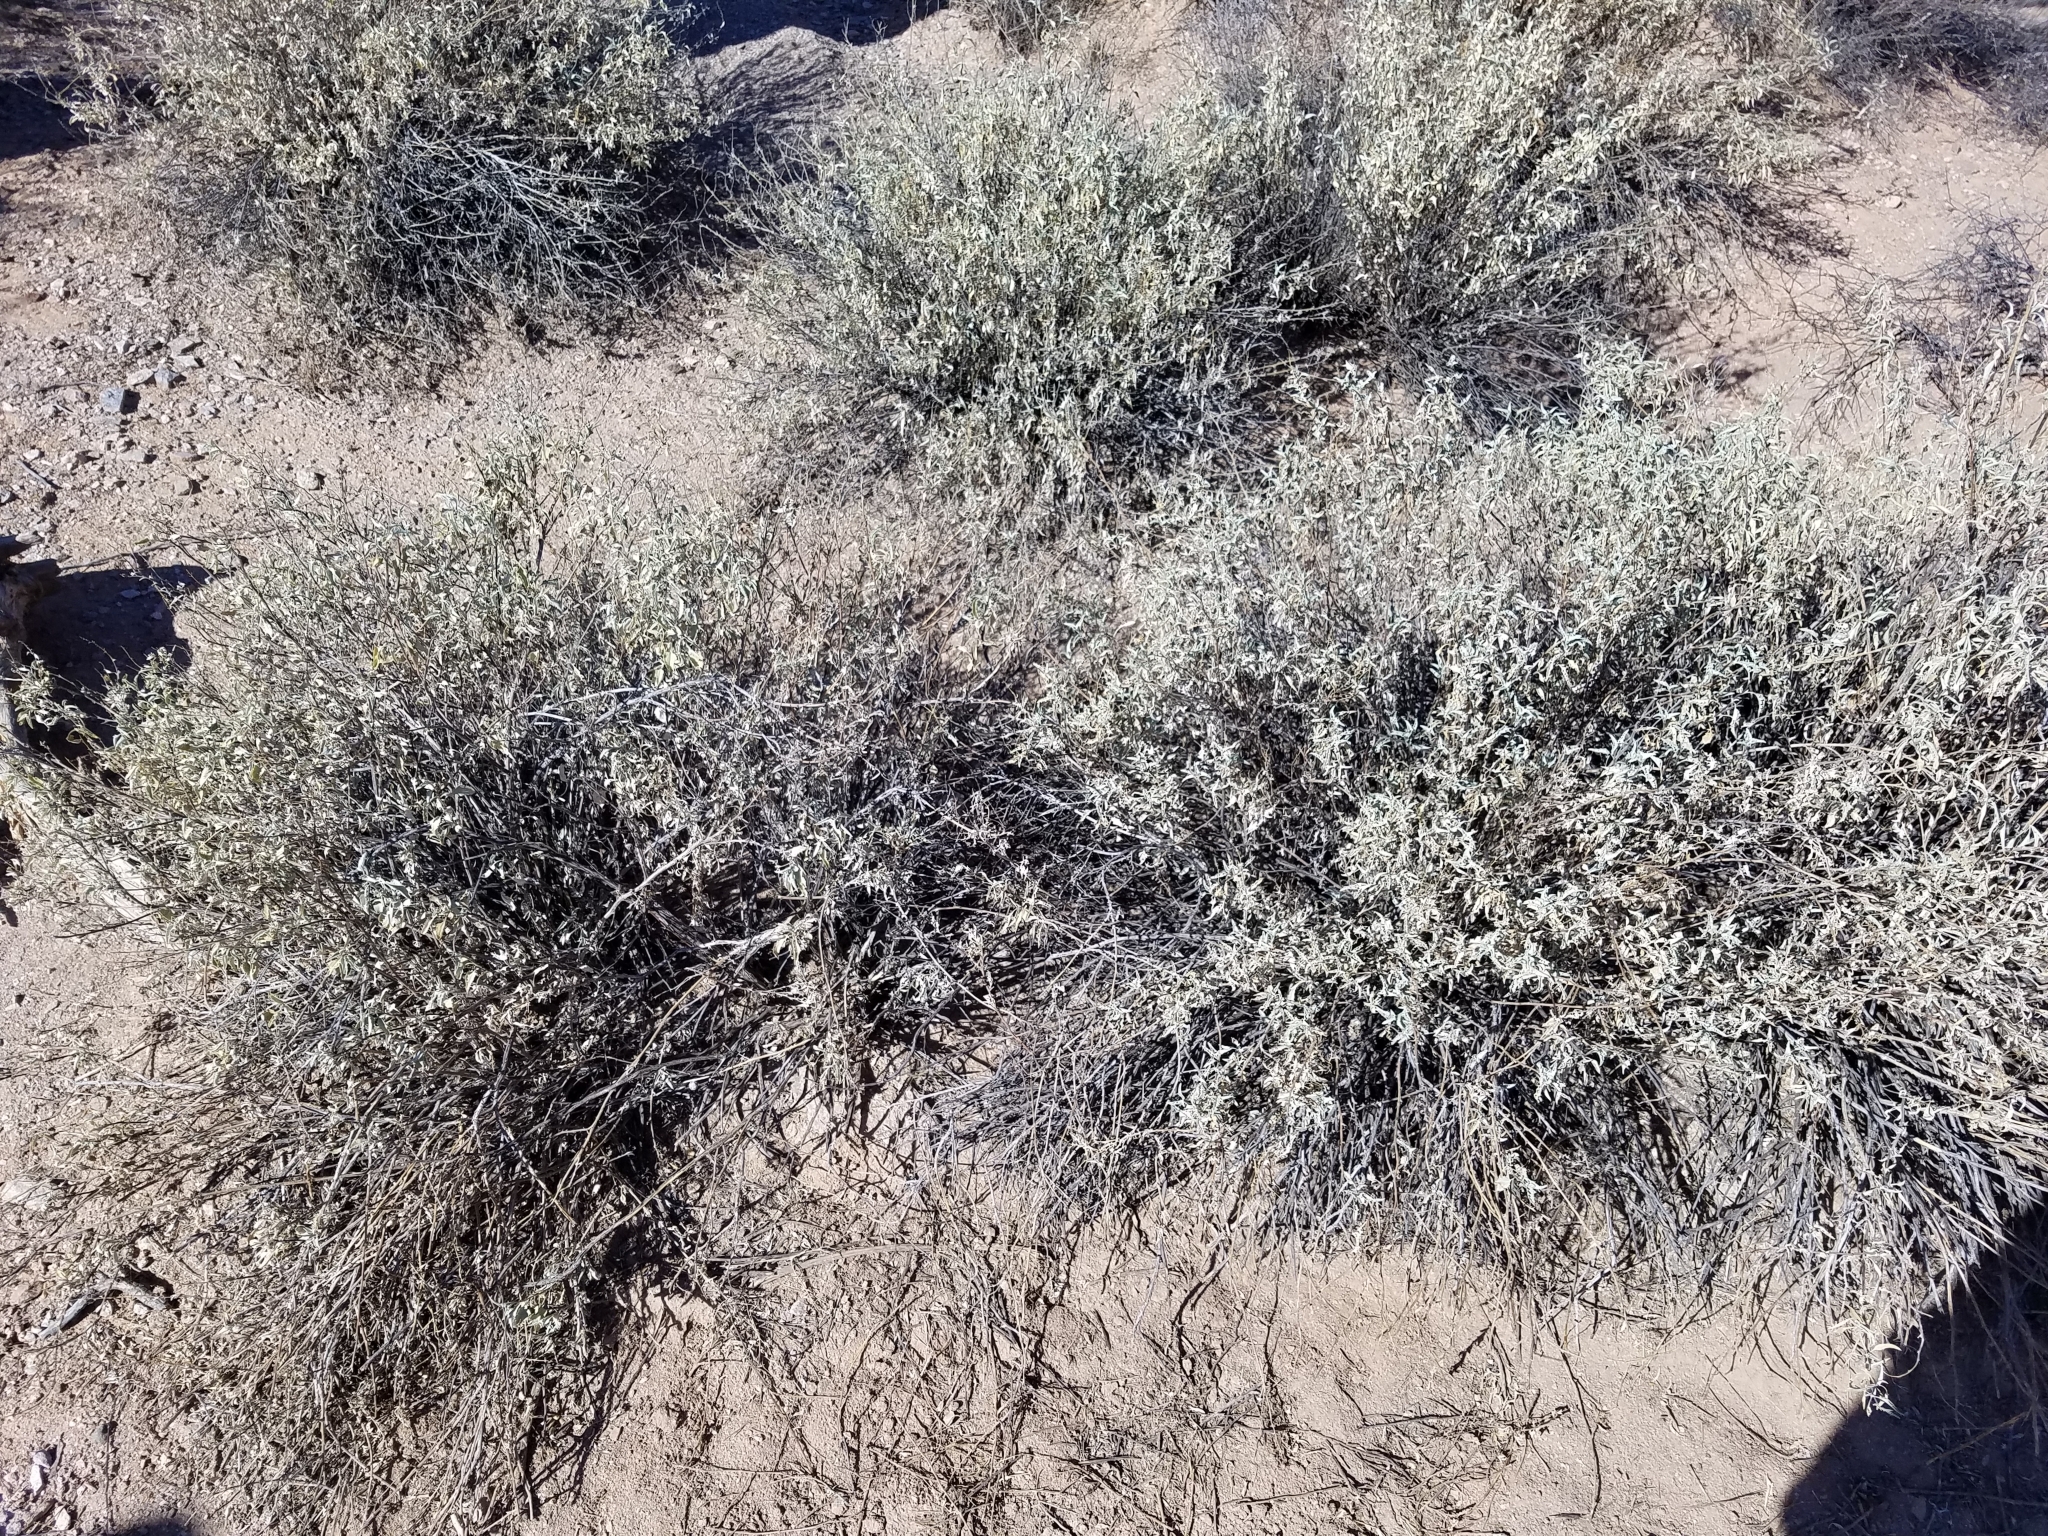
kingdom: Plantae
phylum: Tracheophyta
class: Magnoliopsida
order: Asterales
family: Asteraceae
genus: Ambrosia
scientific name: Ambrosia deltoidea
